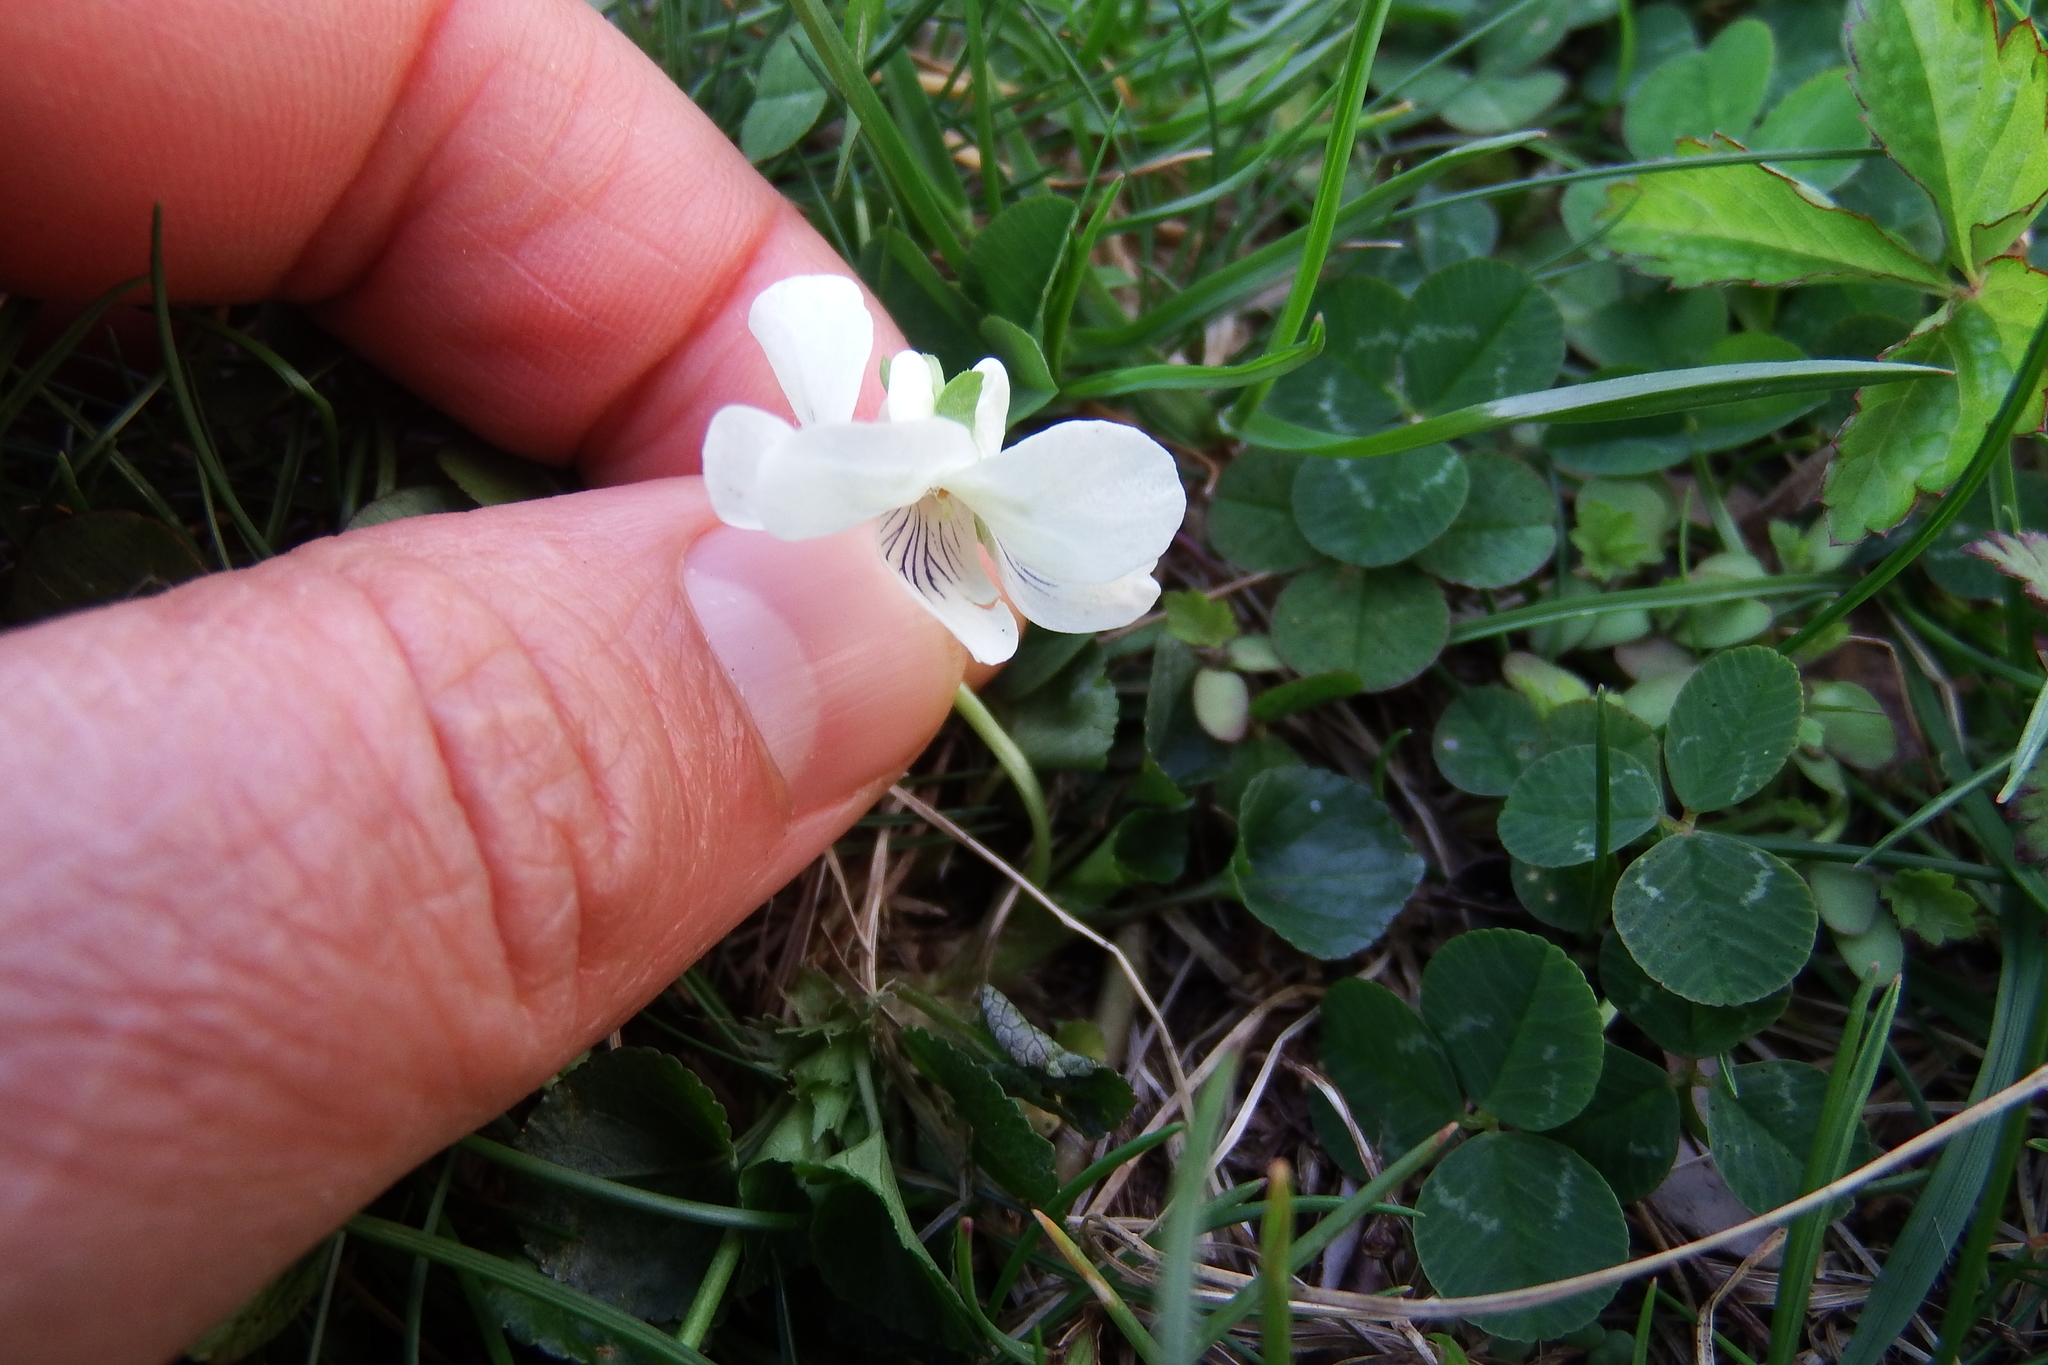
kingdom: Plantae
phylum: Tracheophyta
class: Magnoliopsida
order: Malpighiales
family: Violaceae
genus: Viola
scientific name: Viola striata
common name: Cream violet
